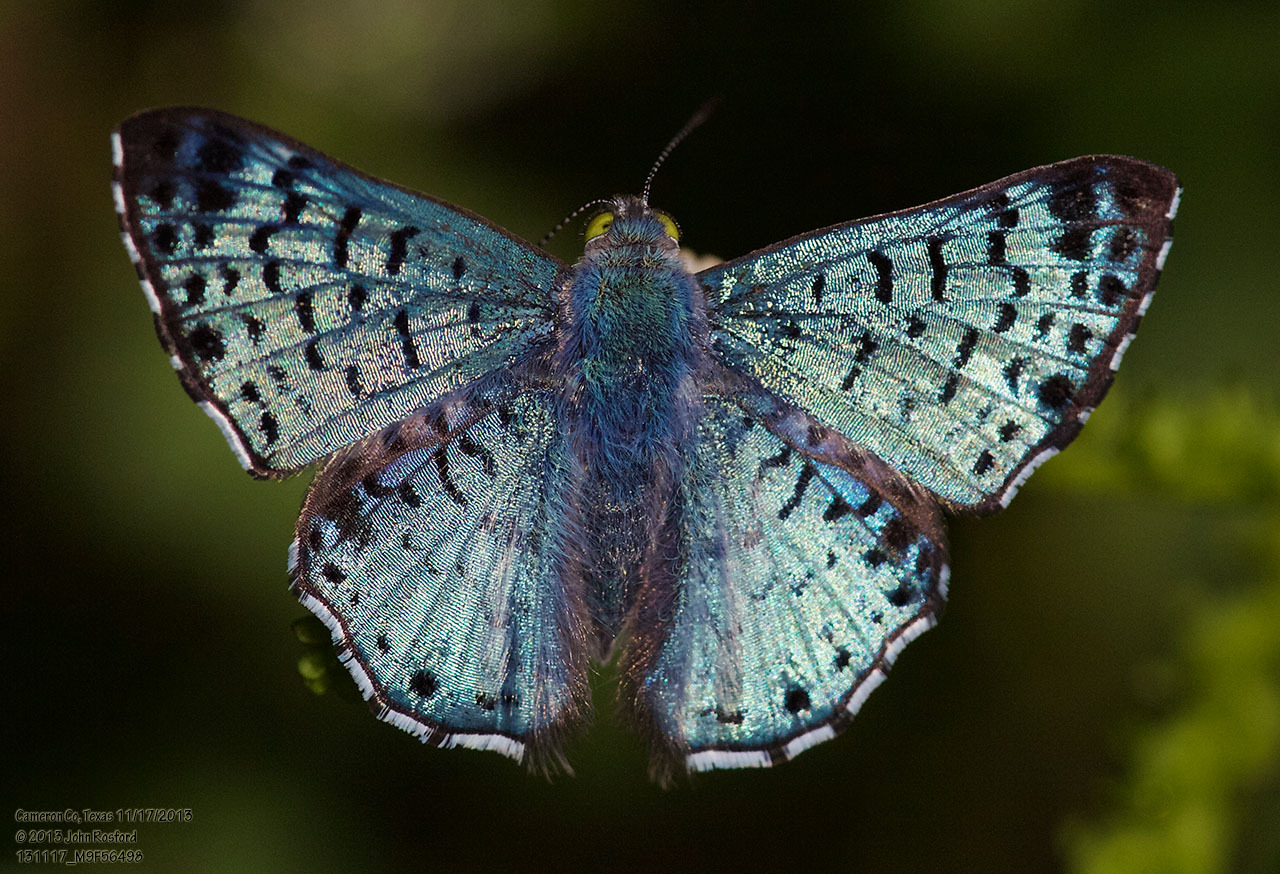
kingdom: Animalia
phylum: Arthropoda
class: Insecta
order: Lepidoptera
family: Riodinidae
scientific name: Riodinidae
